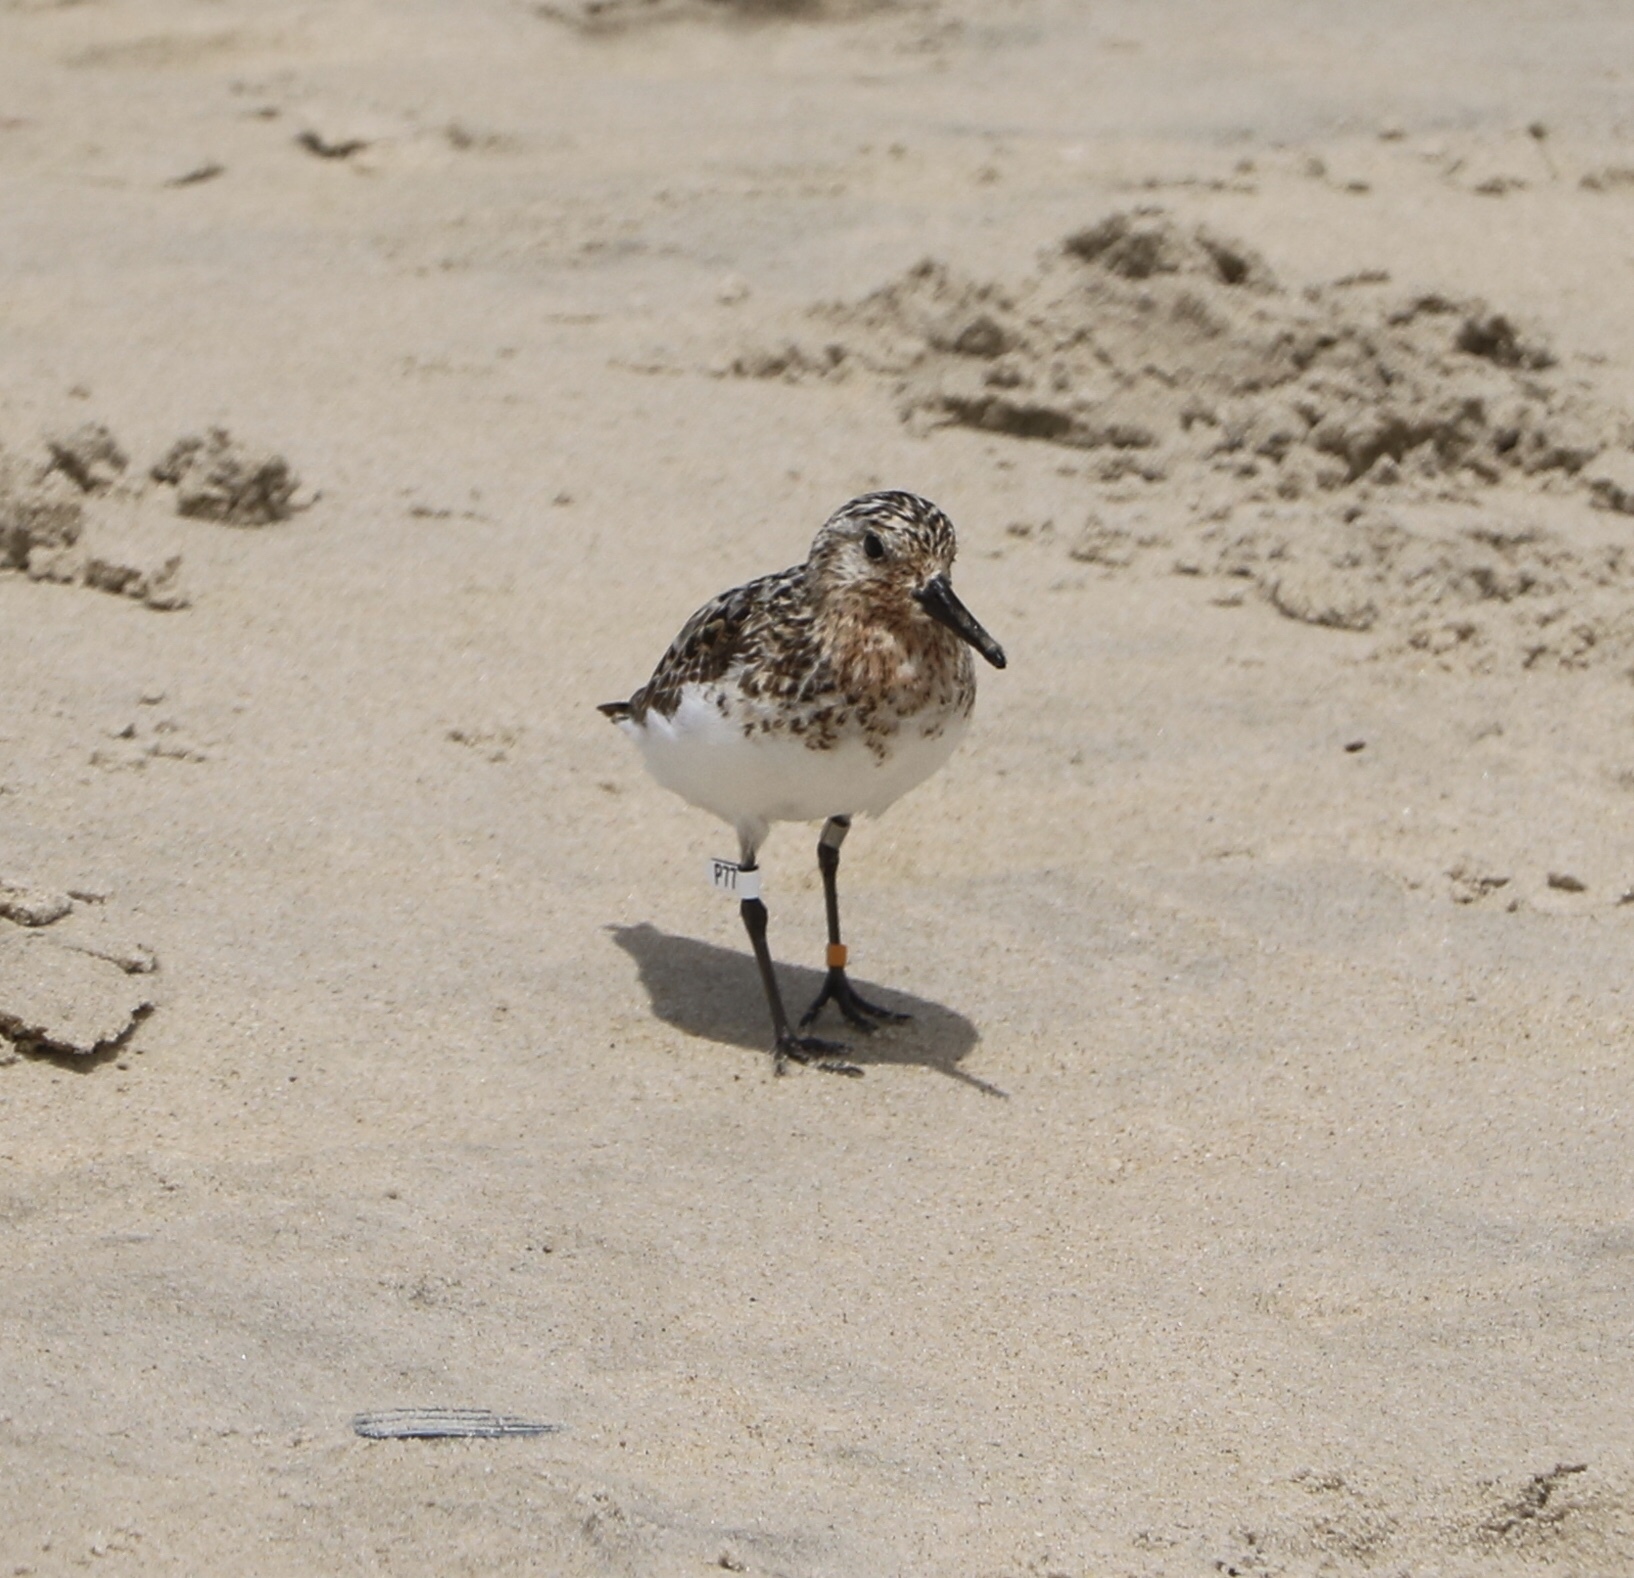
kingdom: Animalia
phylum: Chordata
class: Aves
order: Charadriiformes
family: Scolopacidae
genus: Calidris
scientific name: Calidris alba
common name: Sanderling
